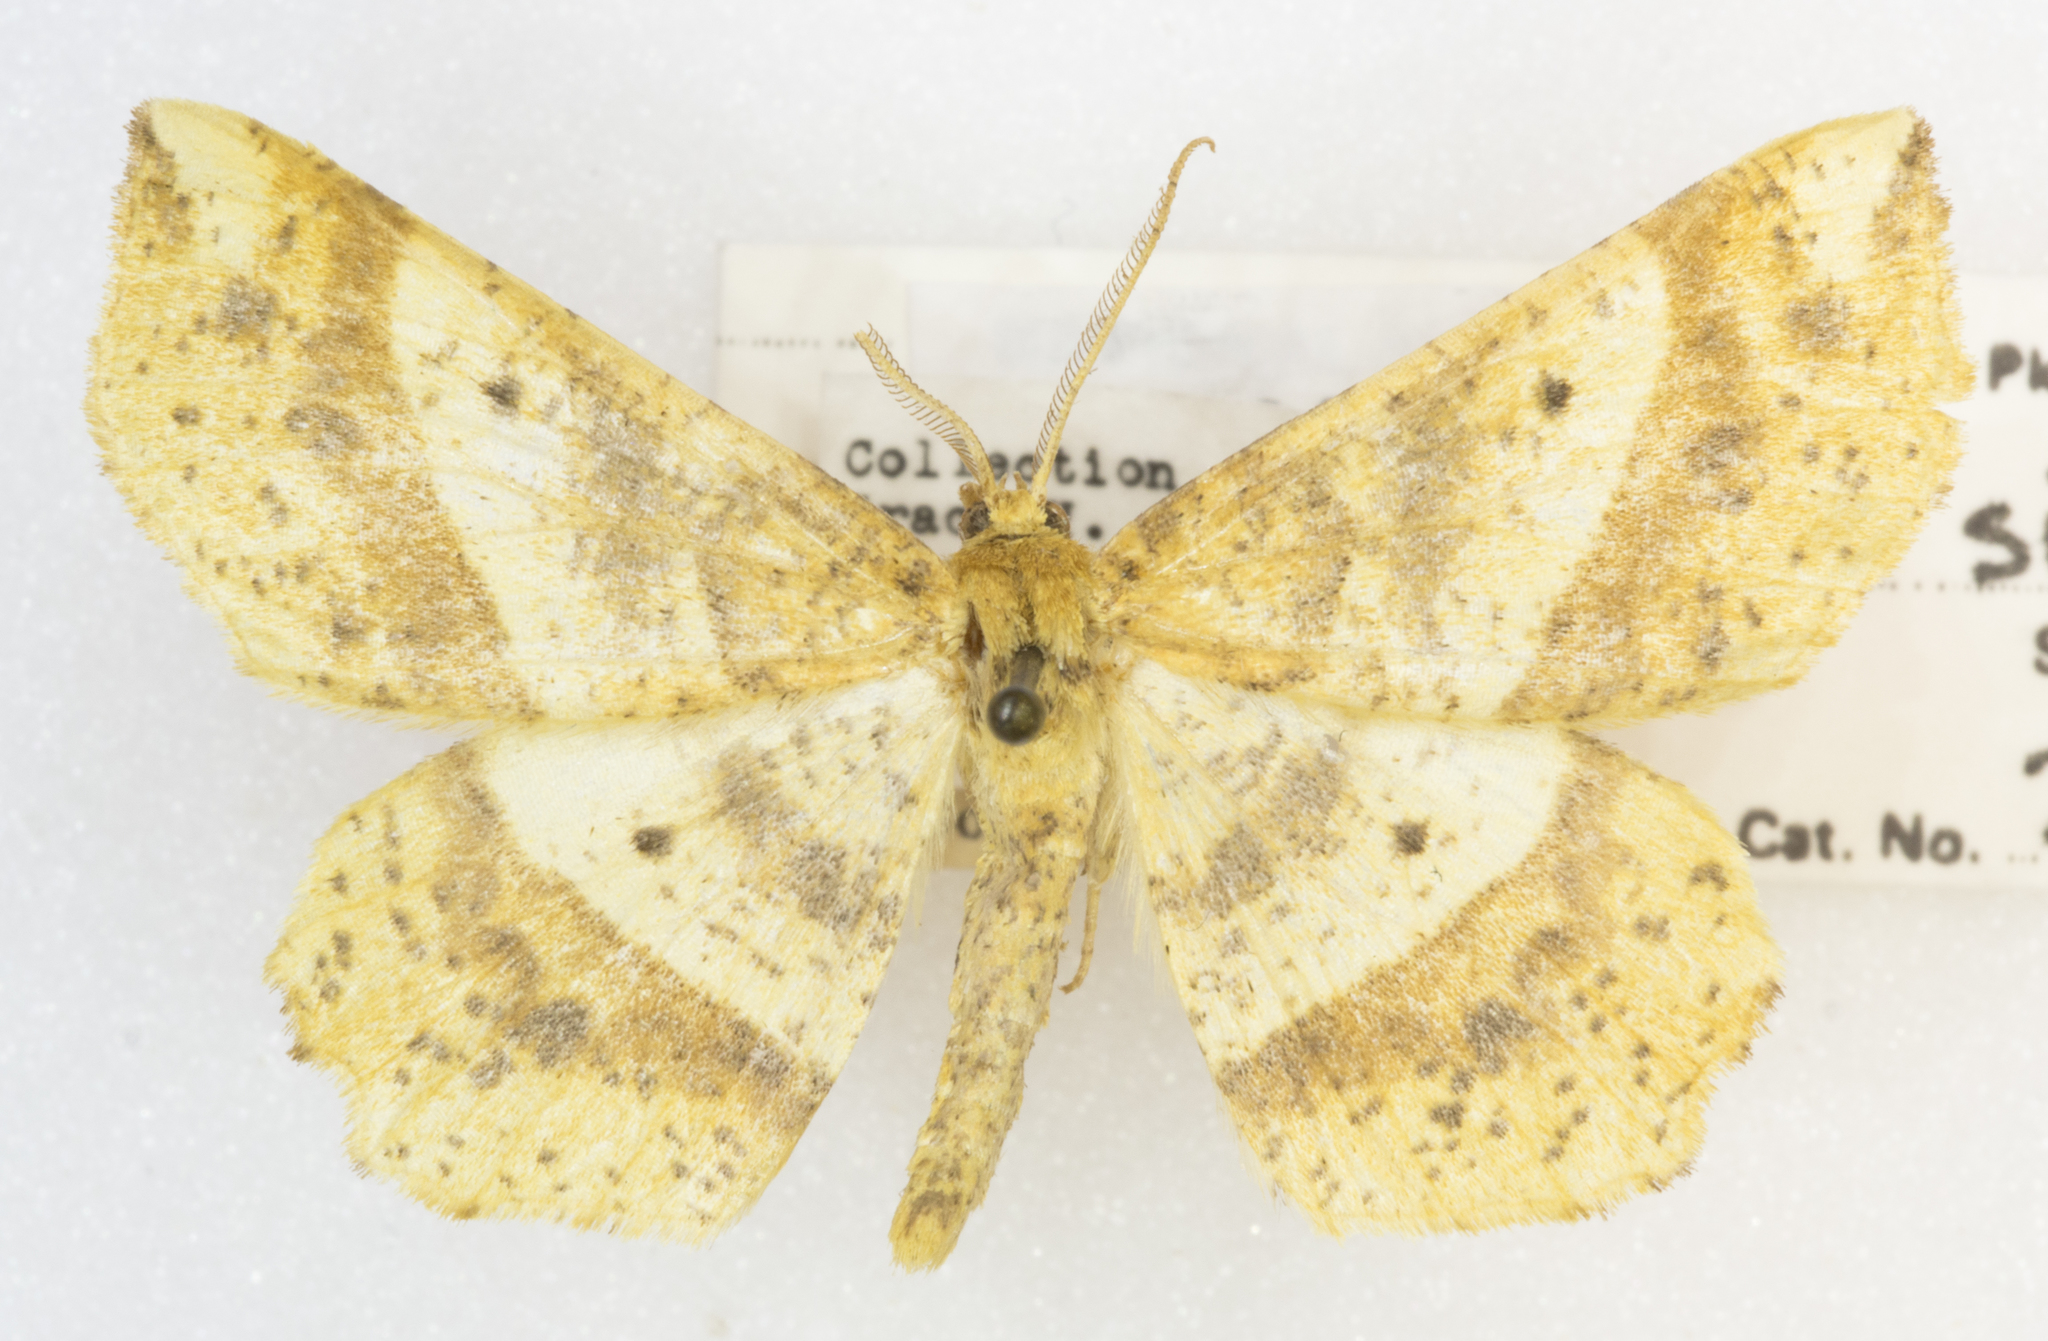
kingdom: Animalia
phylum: Arthropoda
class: Insecta
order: Lepidoptera
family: Geometridae
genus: Euchlaena
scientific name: Euchlaena tigrinaria
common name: Mottled euchlaena moth
